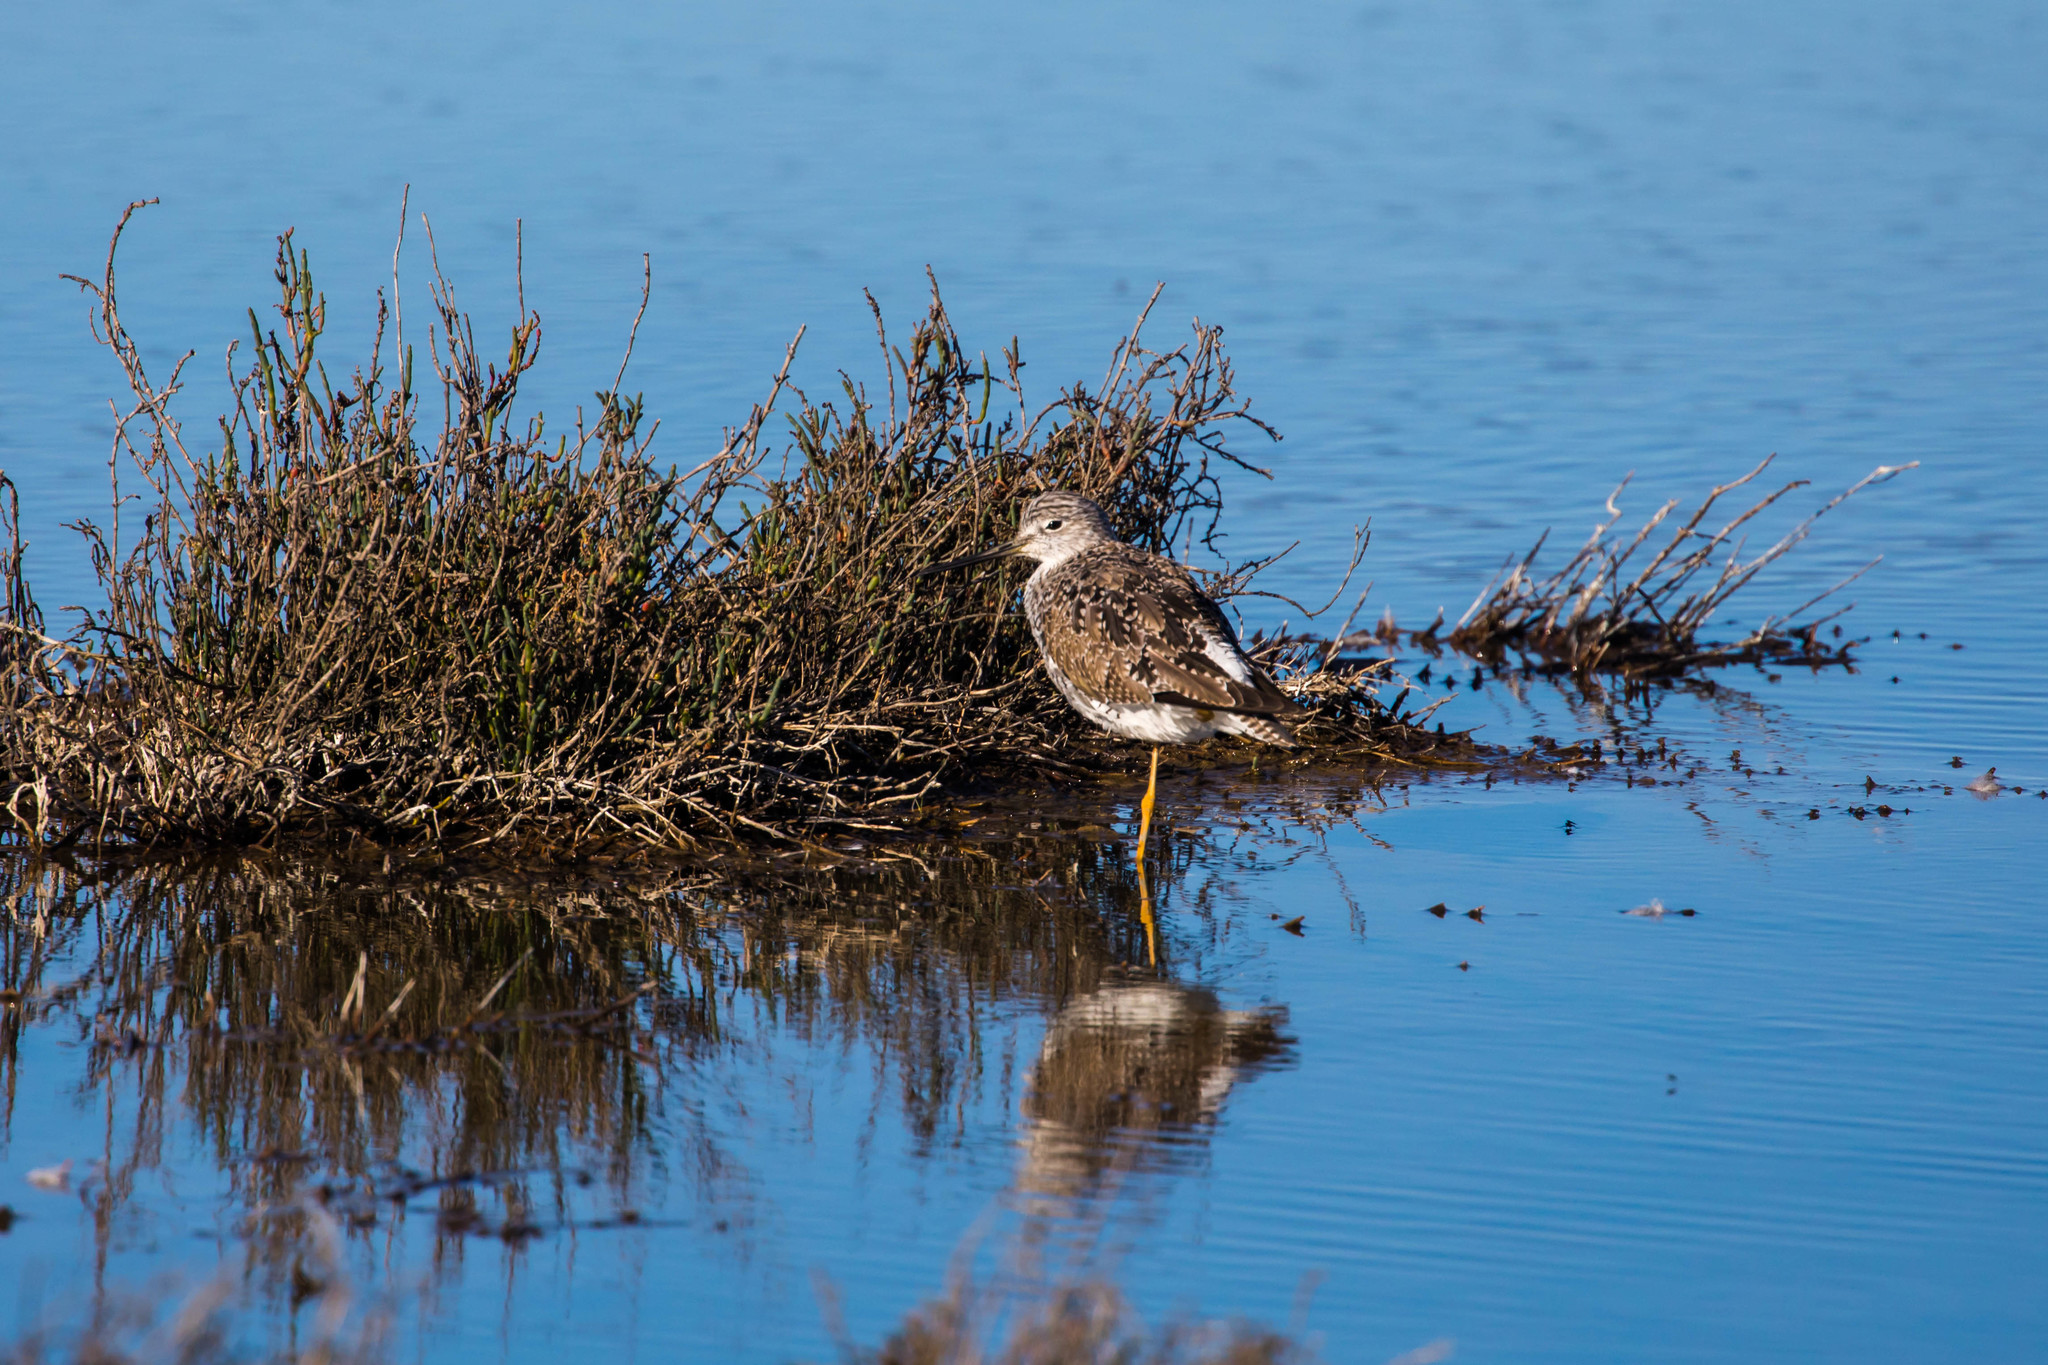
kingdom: Animalia
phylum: Chordata
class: Aves
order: Charadriiformes
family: Scolopacidae
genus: Tringa
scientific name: Tringa melanoleuca
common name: Greater yellowlegs
